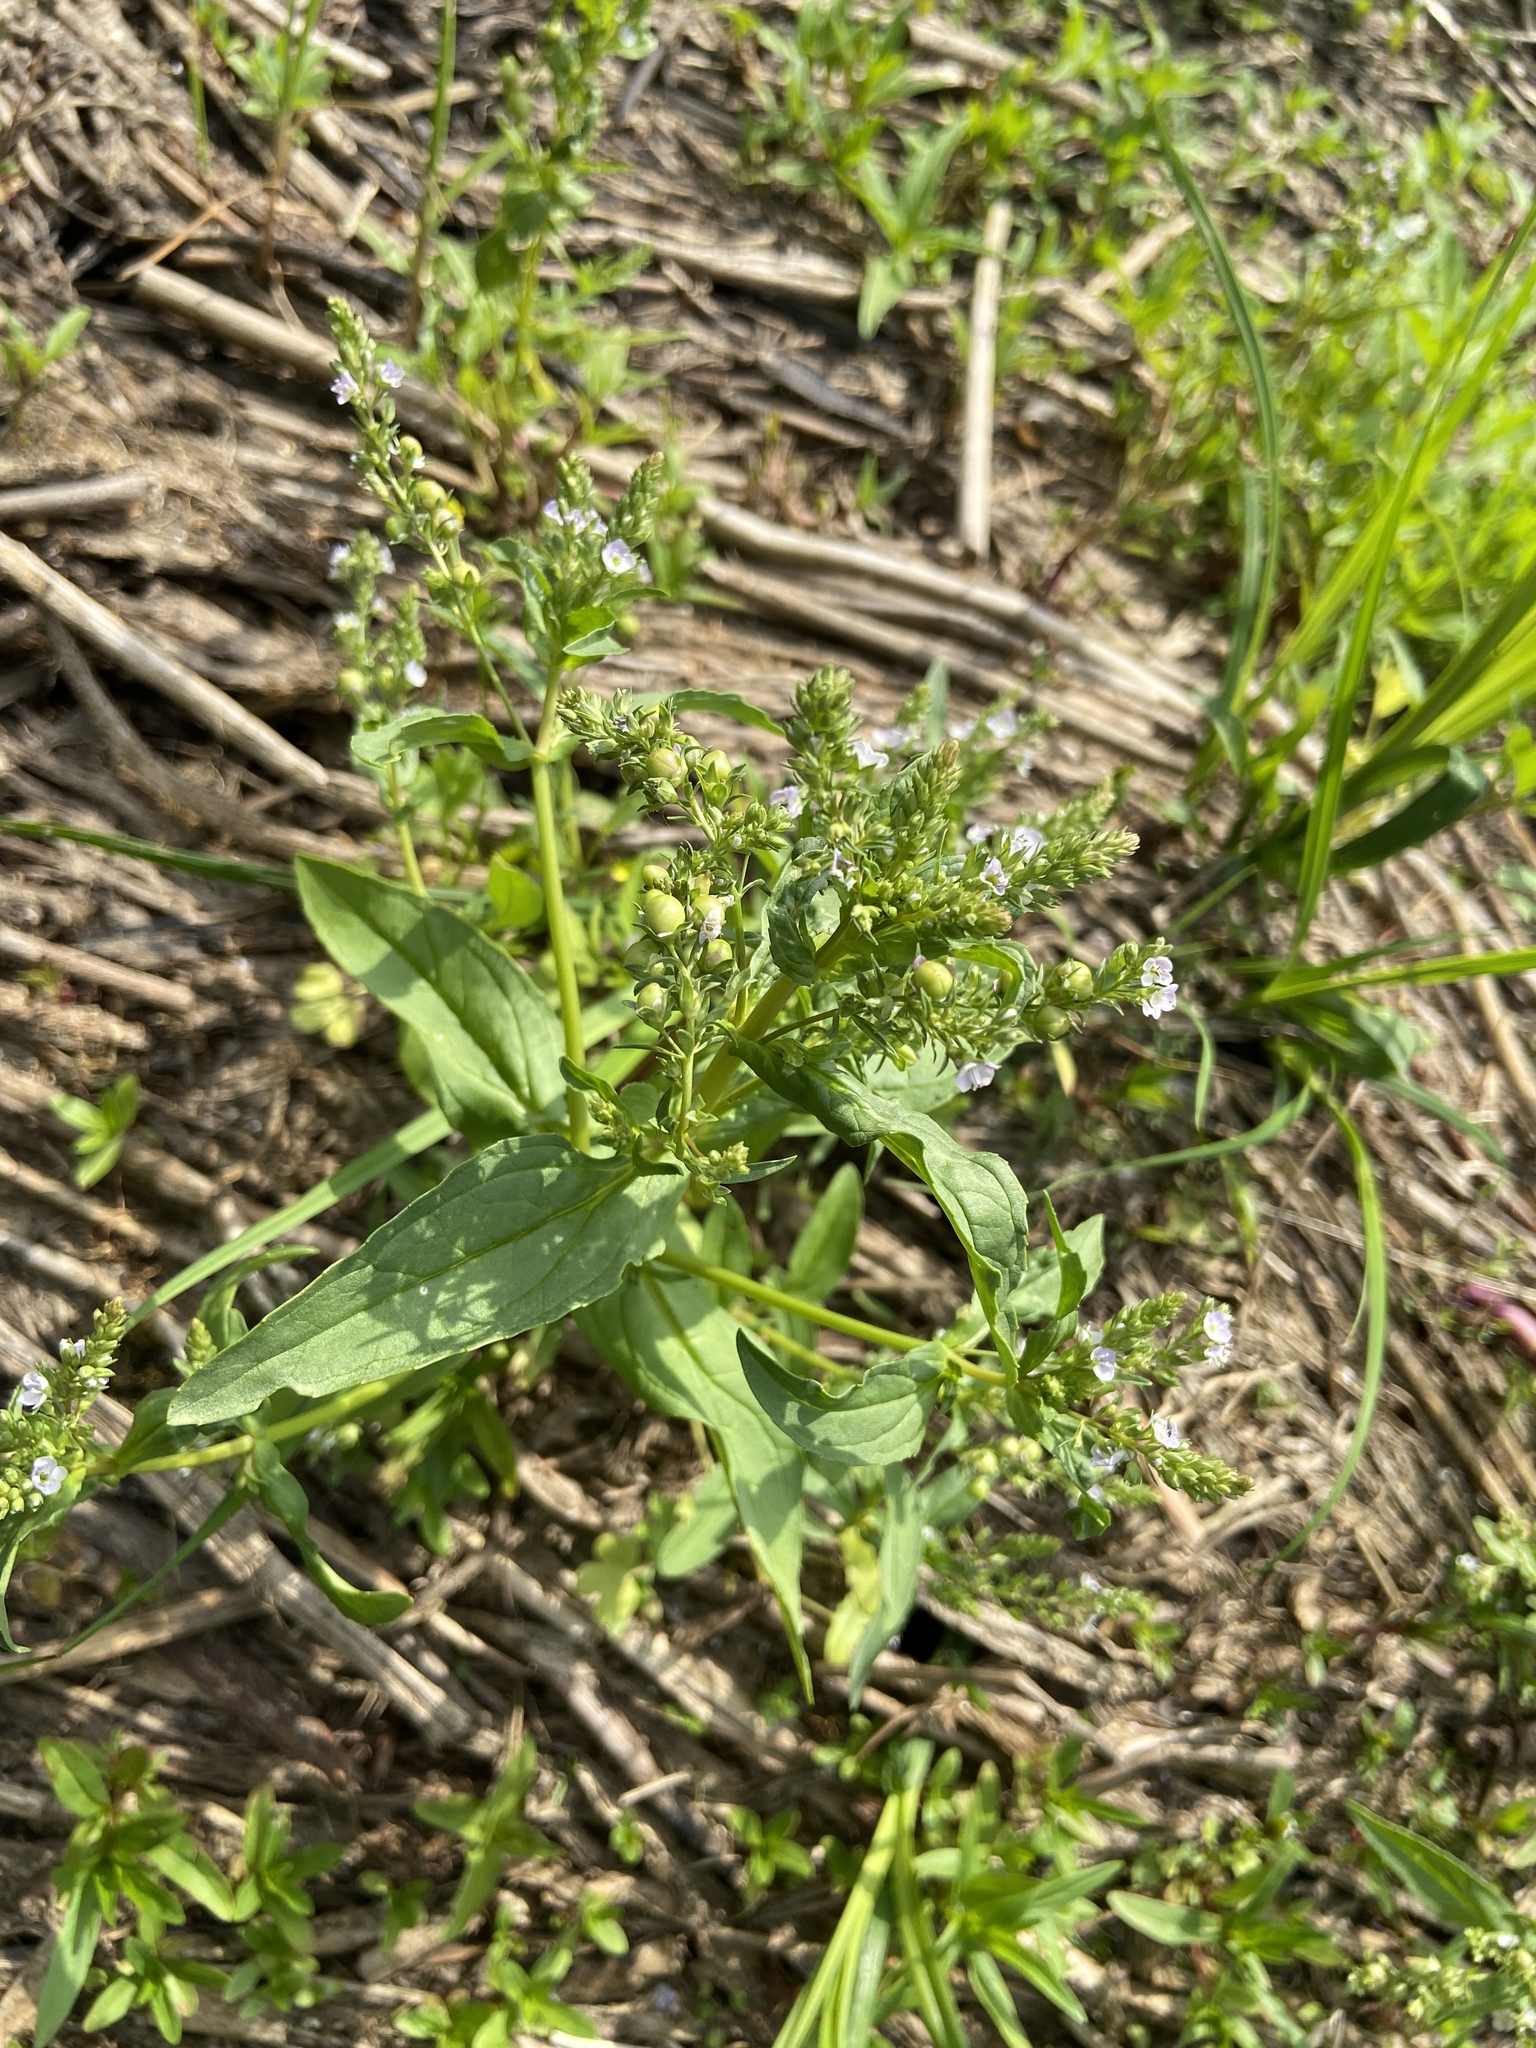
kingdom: Plantae
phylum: Tracheophyta
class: Magnoliopsida
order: Lamiales
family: Plantaginaceae
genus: Veronica
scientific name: Veronica anagallis-aquatica
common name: Water speedwell
